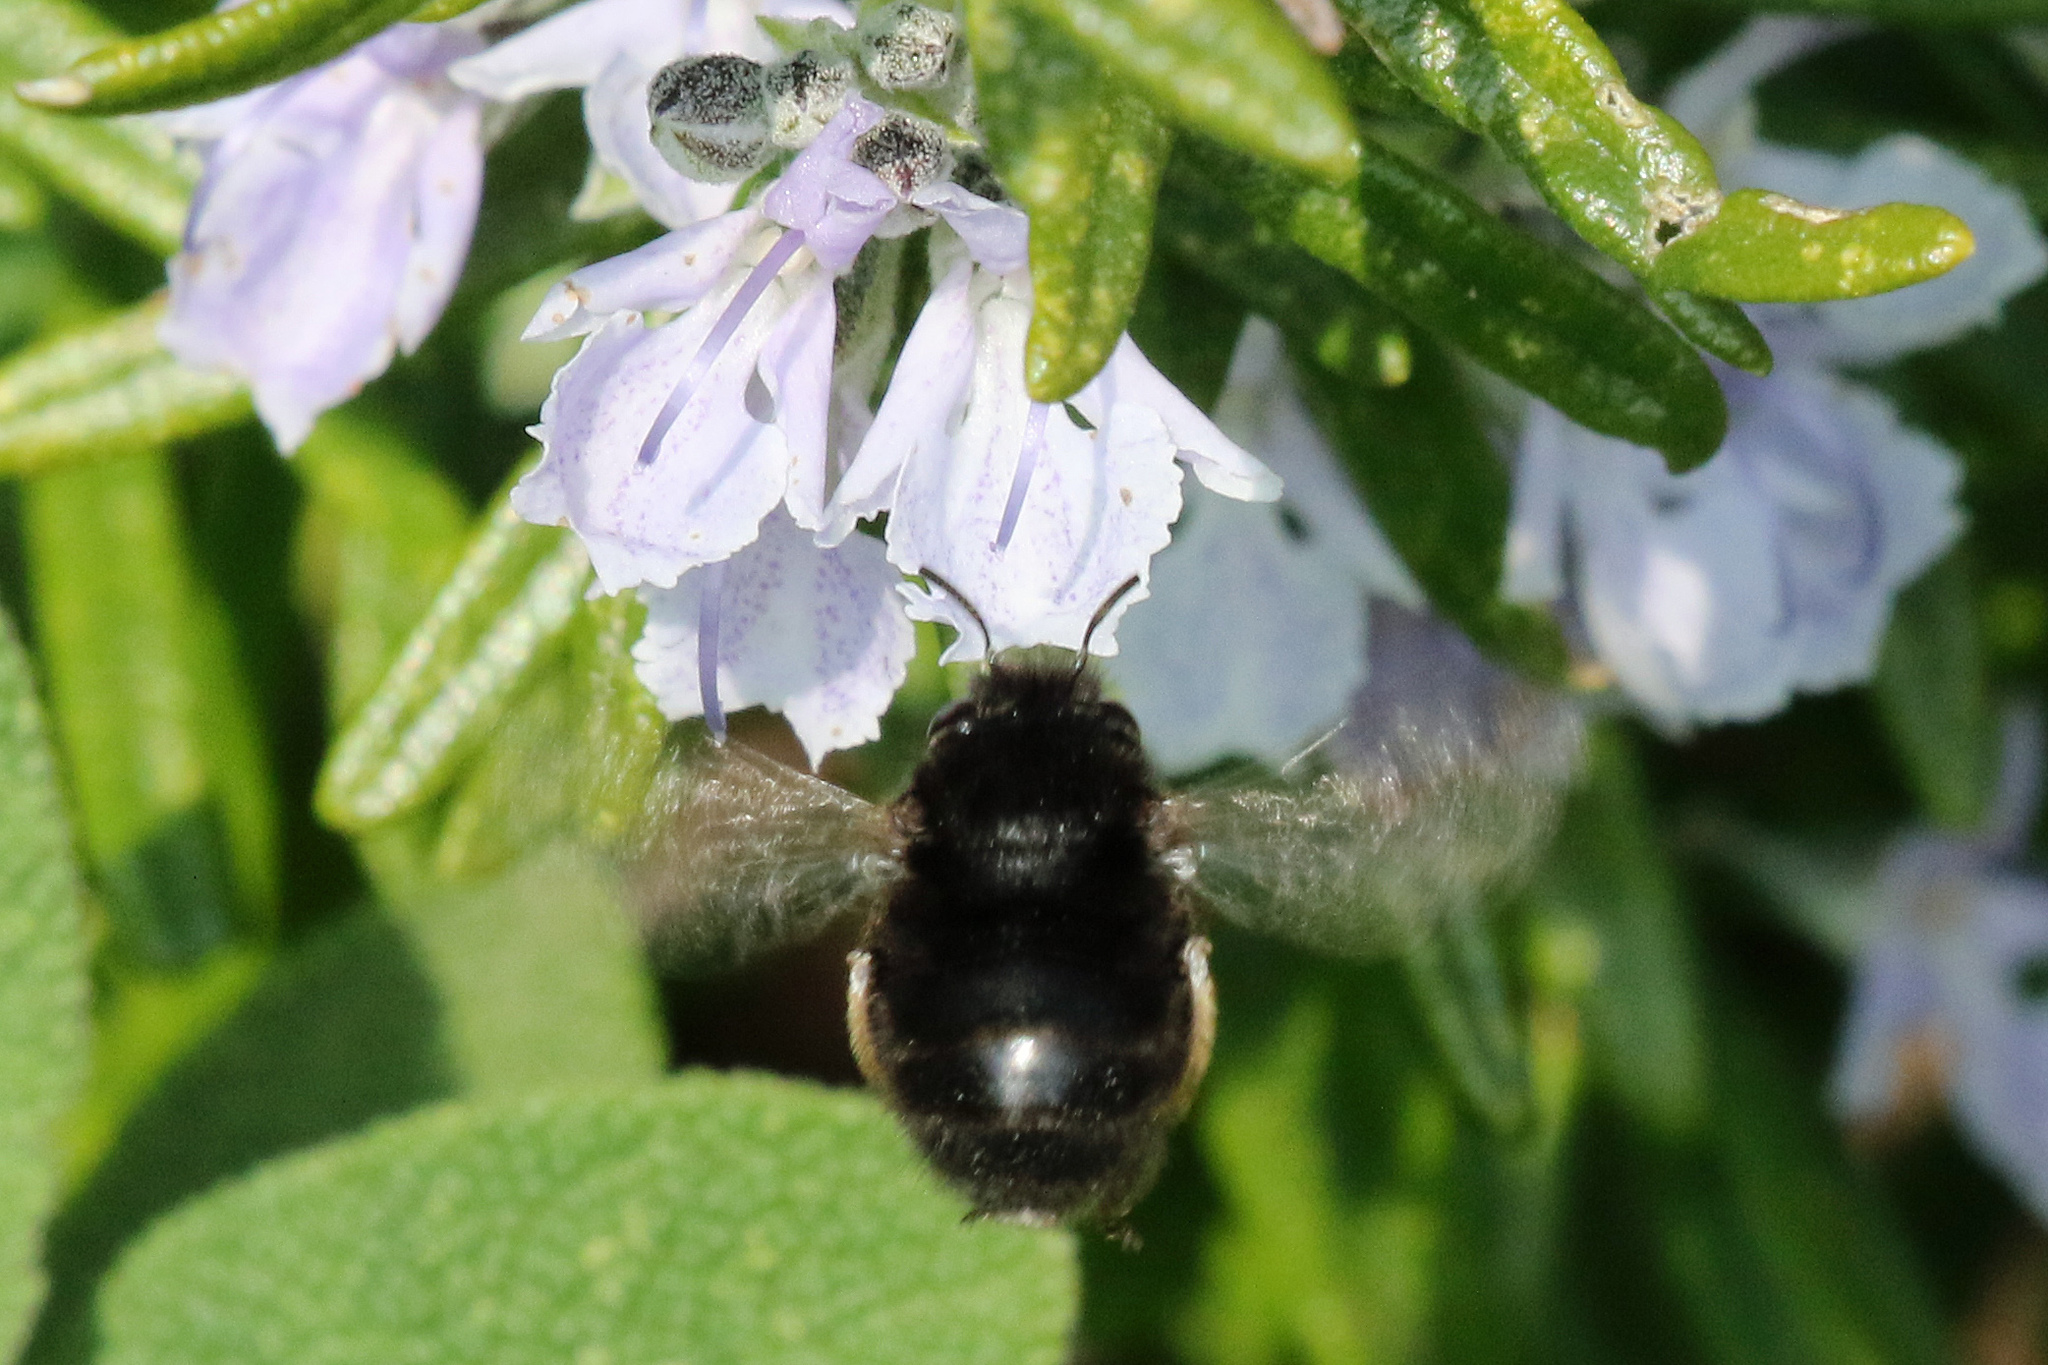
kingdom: Animalia
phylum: Arthropoda
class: Insecta
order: Hymenoptera
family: Apidae
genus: Anthophora
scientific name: Anthophora plumipes
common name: Hairy-footed flower bee
